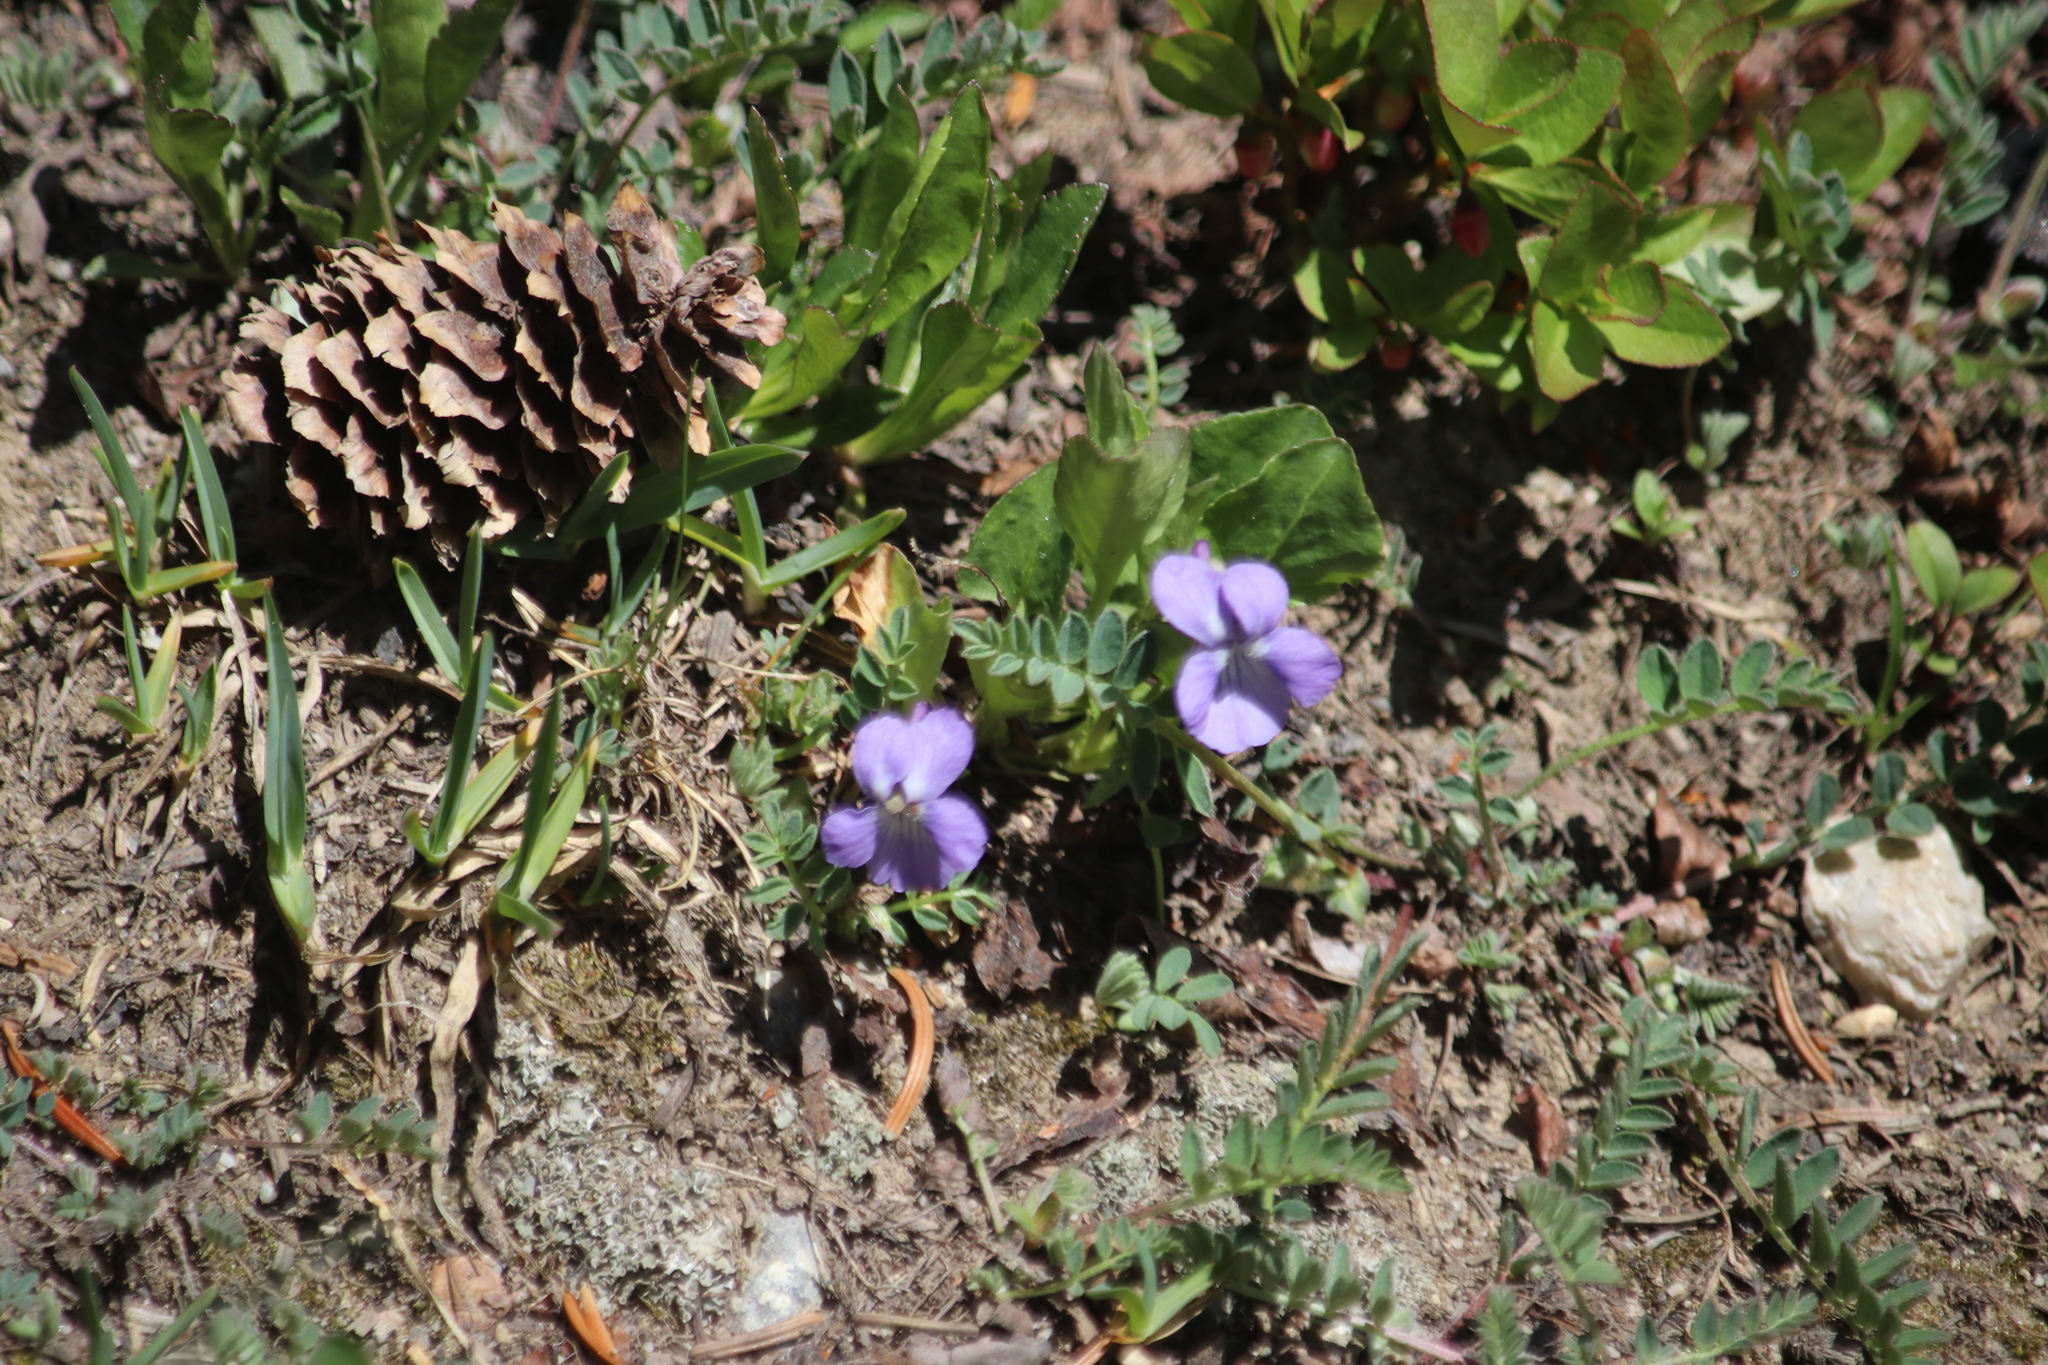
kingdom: Plantae
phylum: Tracheophyta
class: Magnoliopsida
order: Malpighiales
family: Violaceae
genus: Viola
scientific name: Viola adunca
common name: Sand violet
